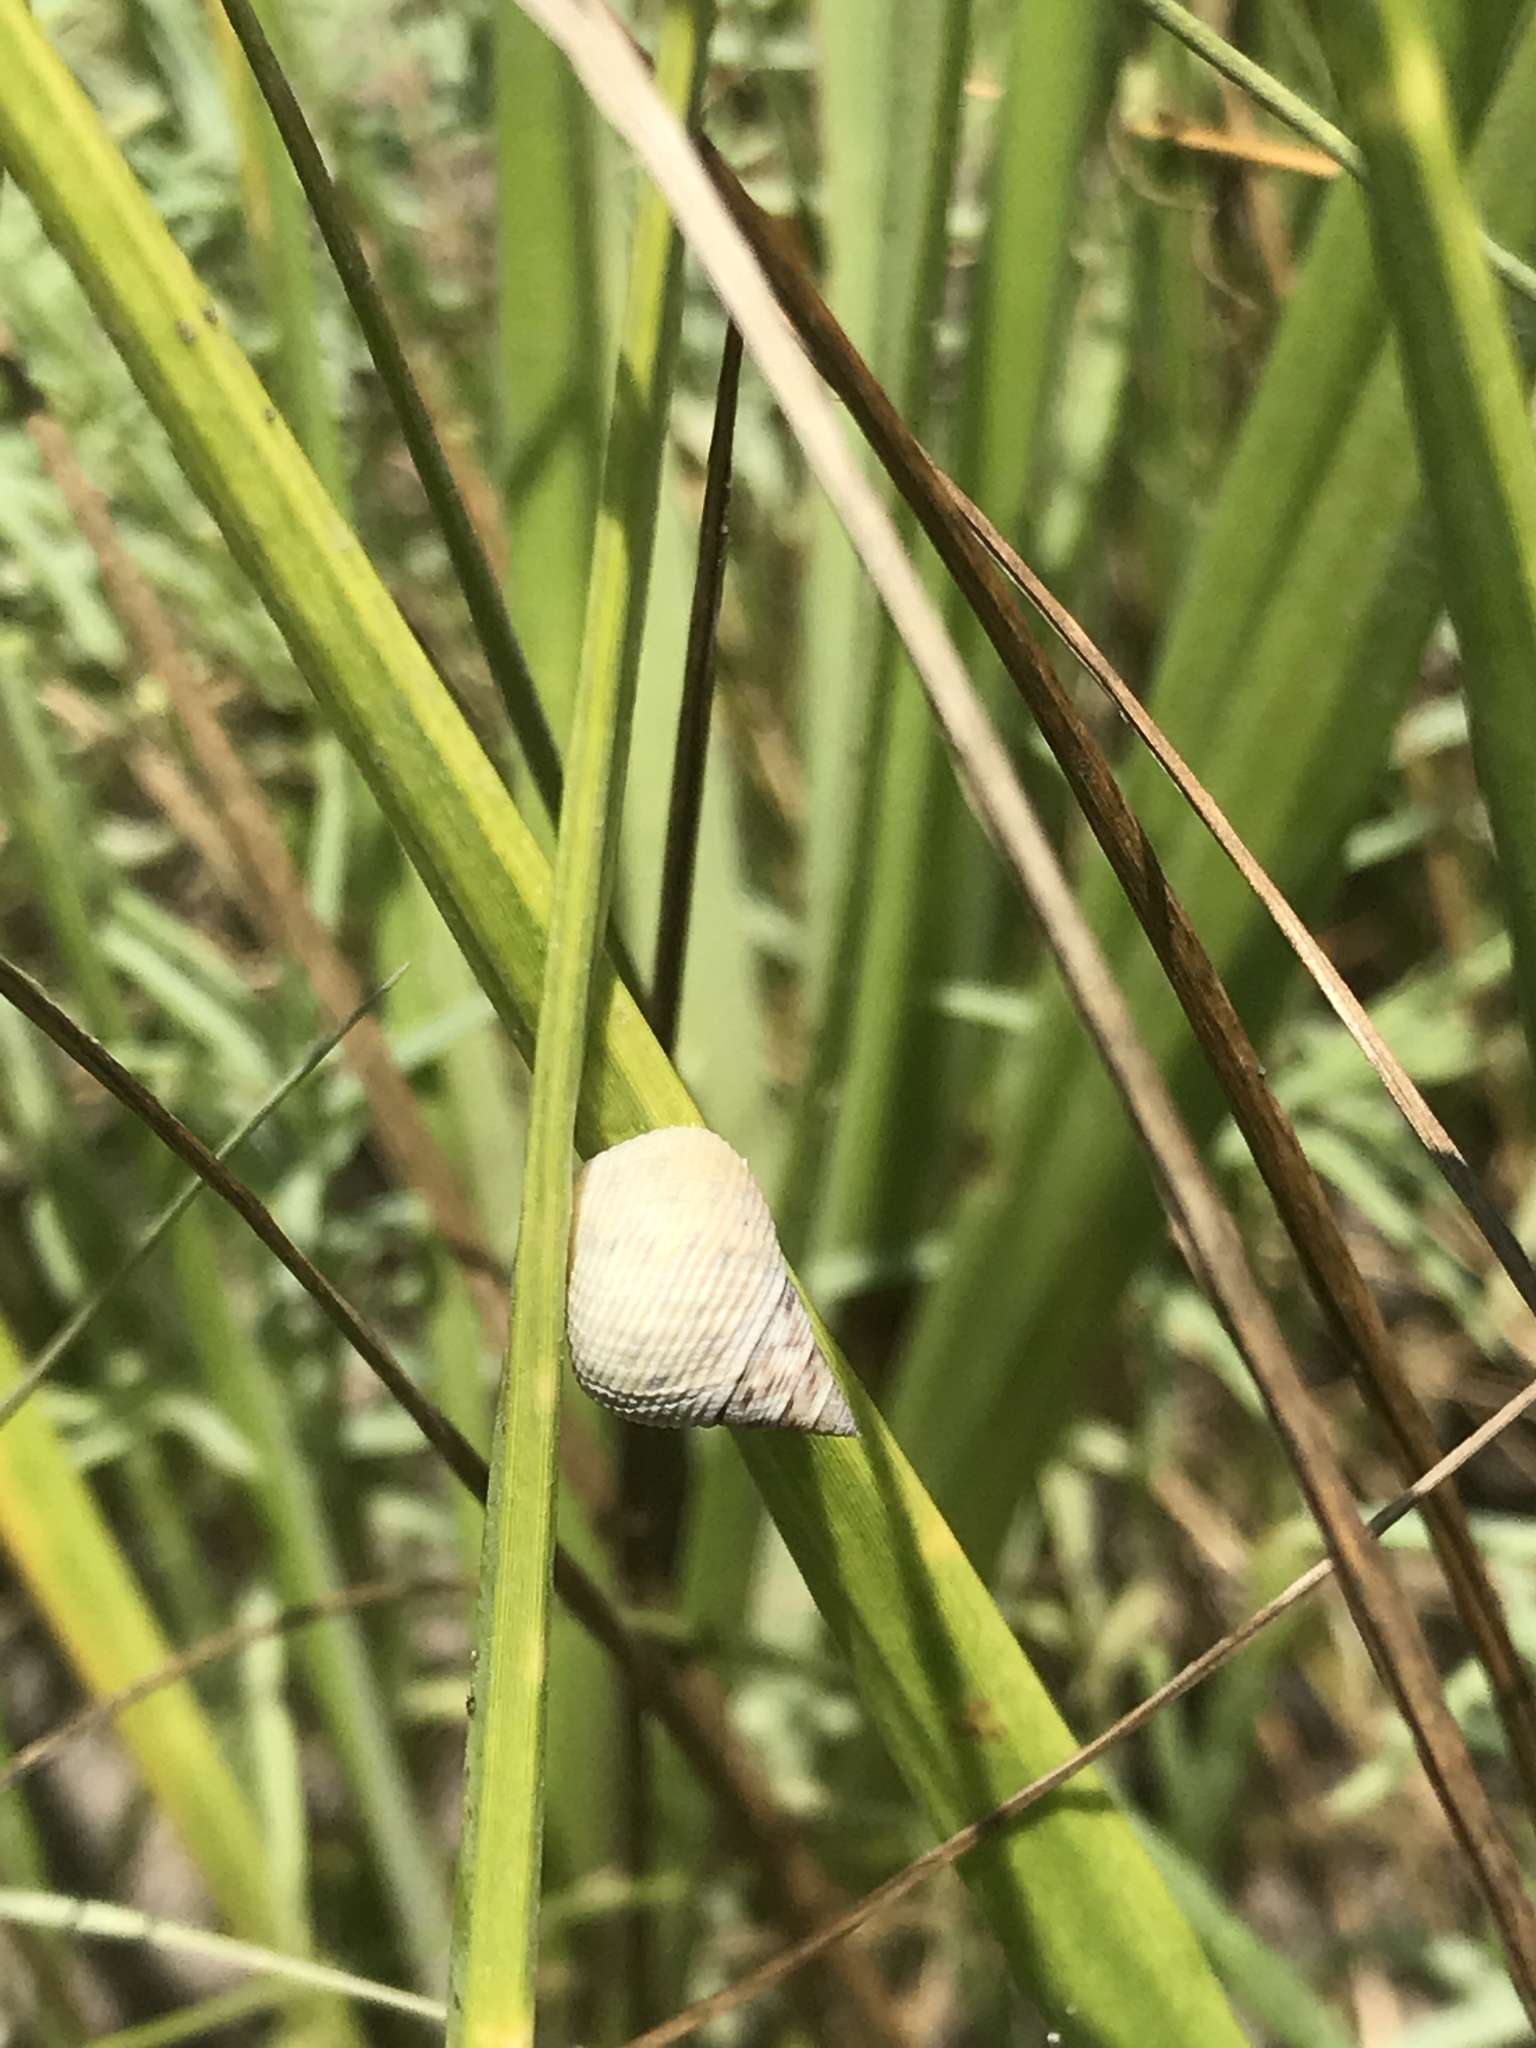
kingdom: Animalia
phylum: Mollusca
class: Gastropoda
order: Littorinimorpha
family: Littorinidae
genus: Littoraria
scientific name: Littoraria irrorata
